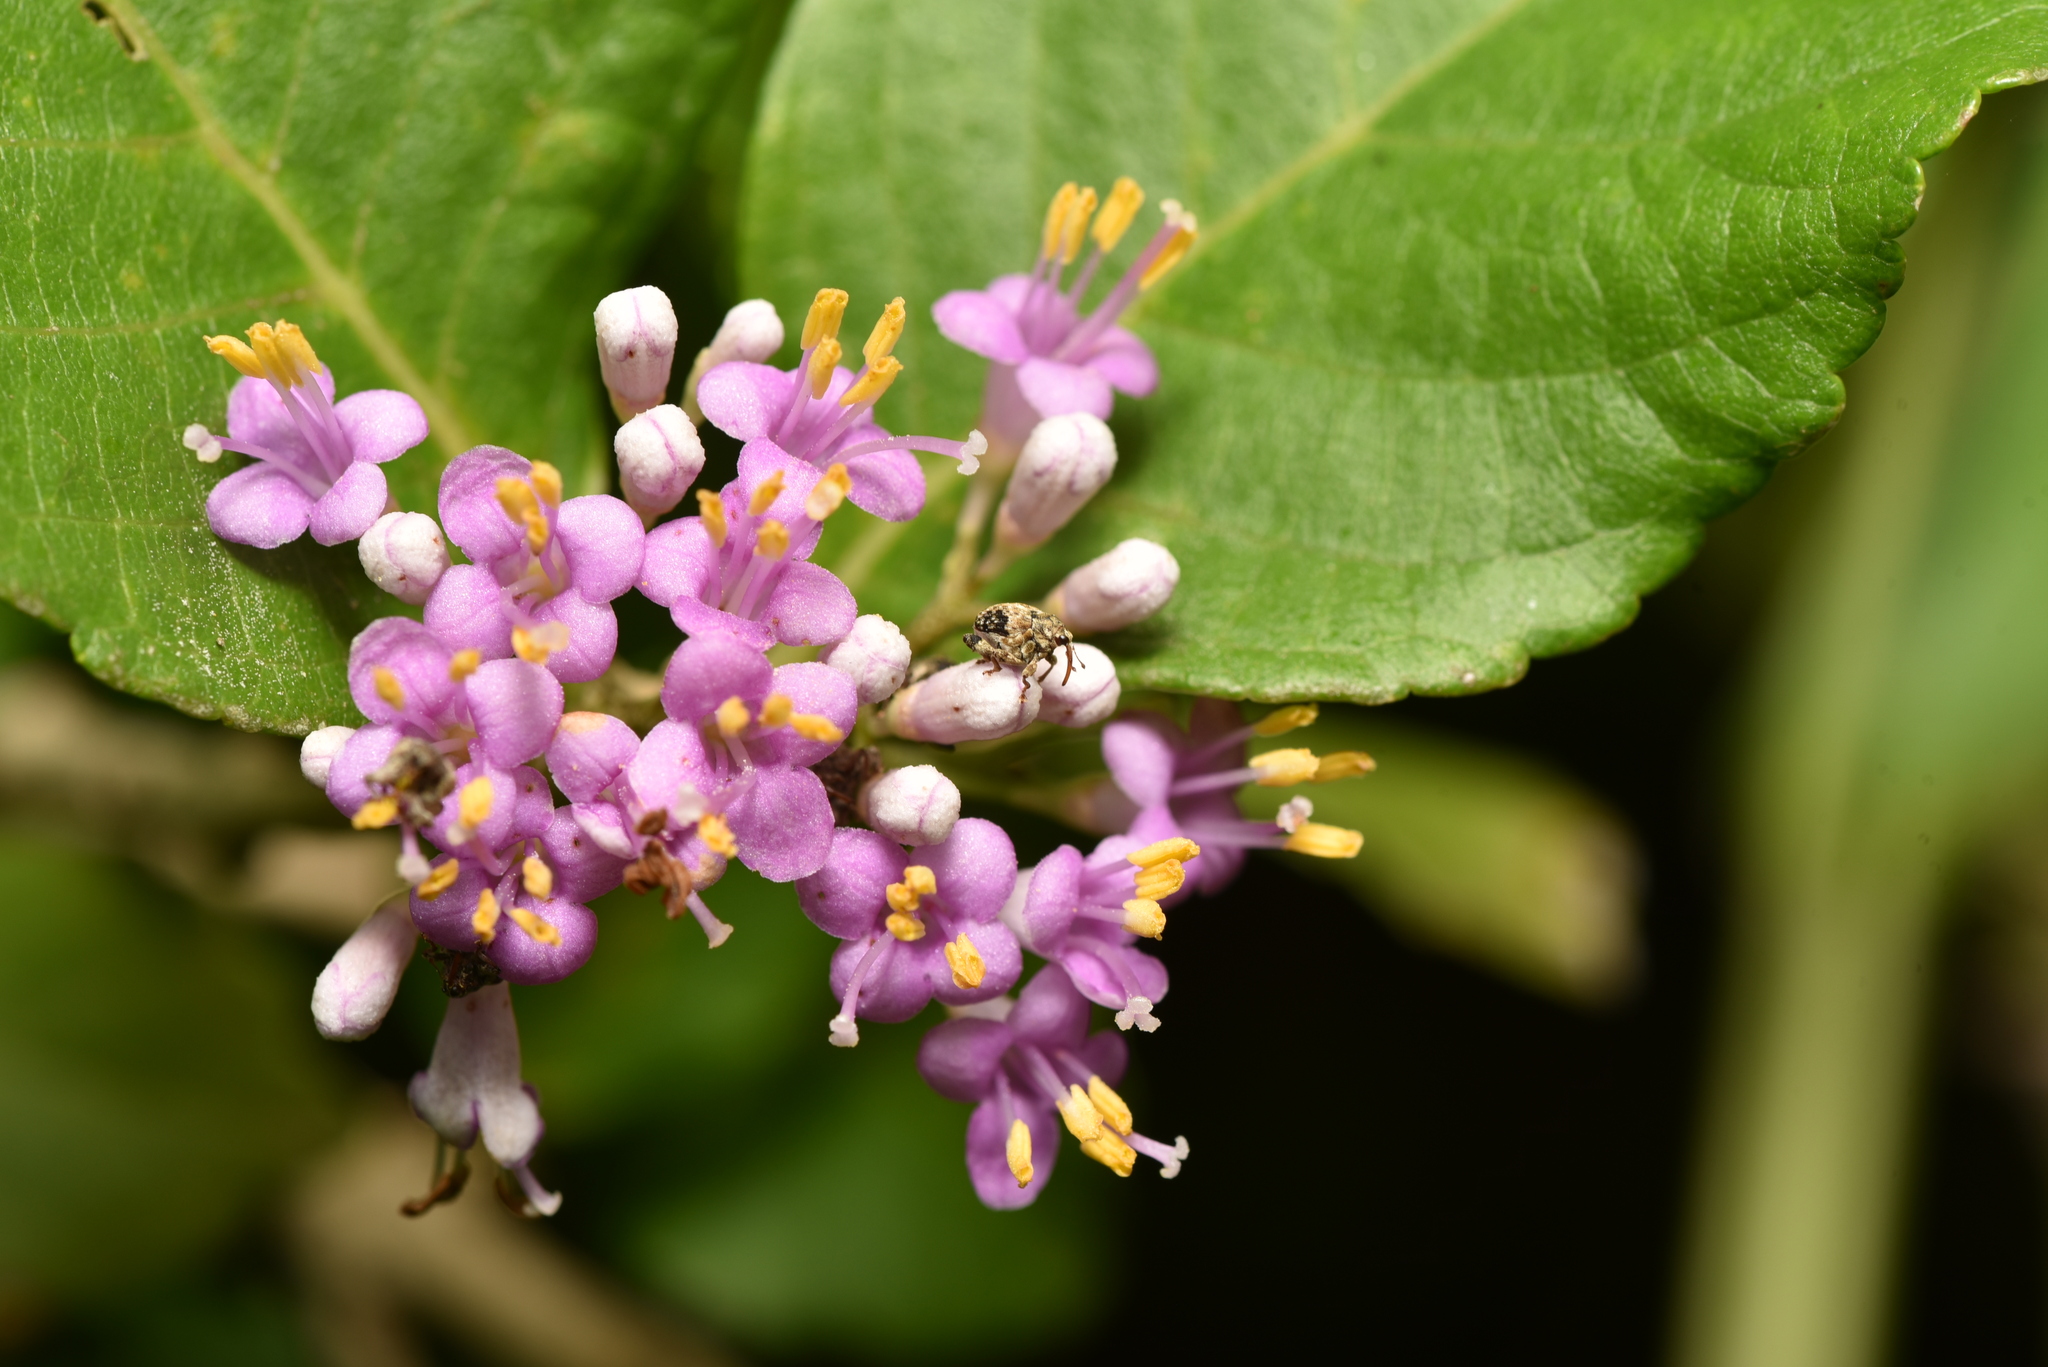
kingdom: Plantae
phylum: Tracheophyta
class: Magnoliopsida
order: Lamiales
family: Lamiaceae
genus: Callicarpa
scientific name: Callicarpa japonica
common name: Japanese beauty-berry
